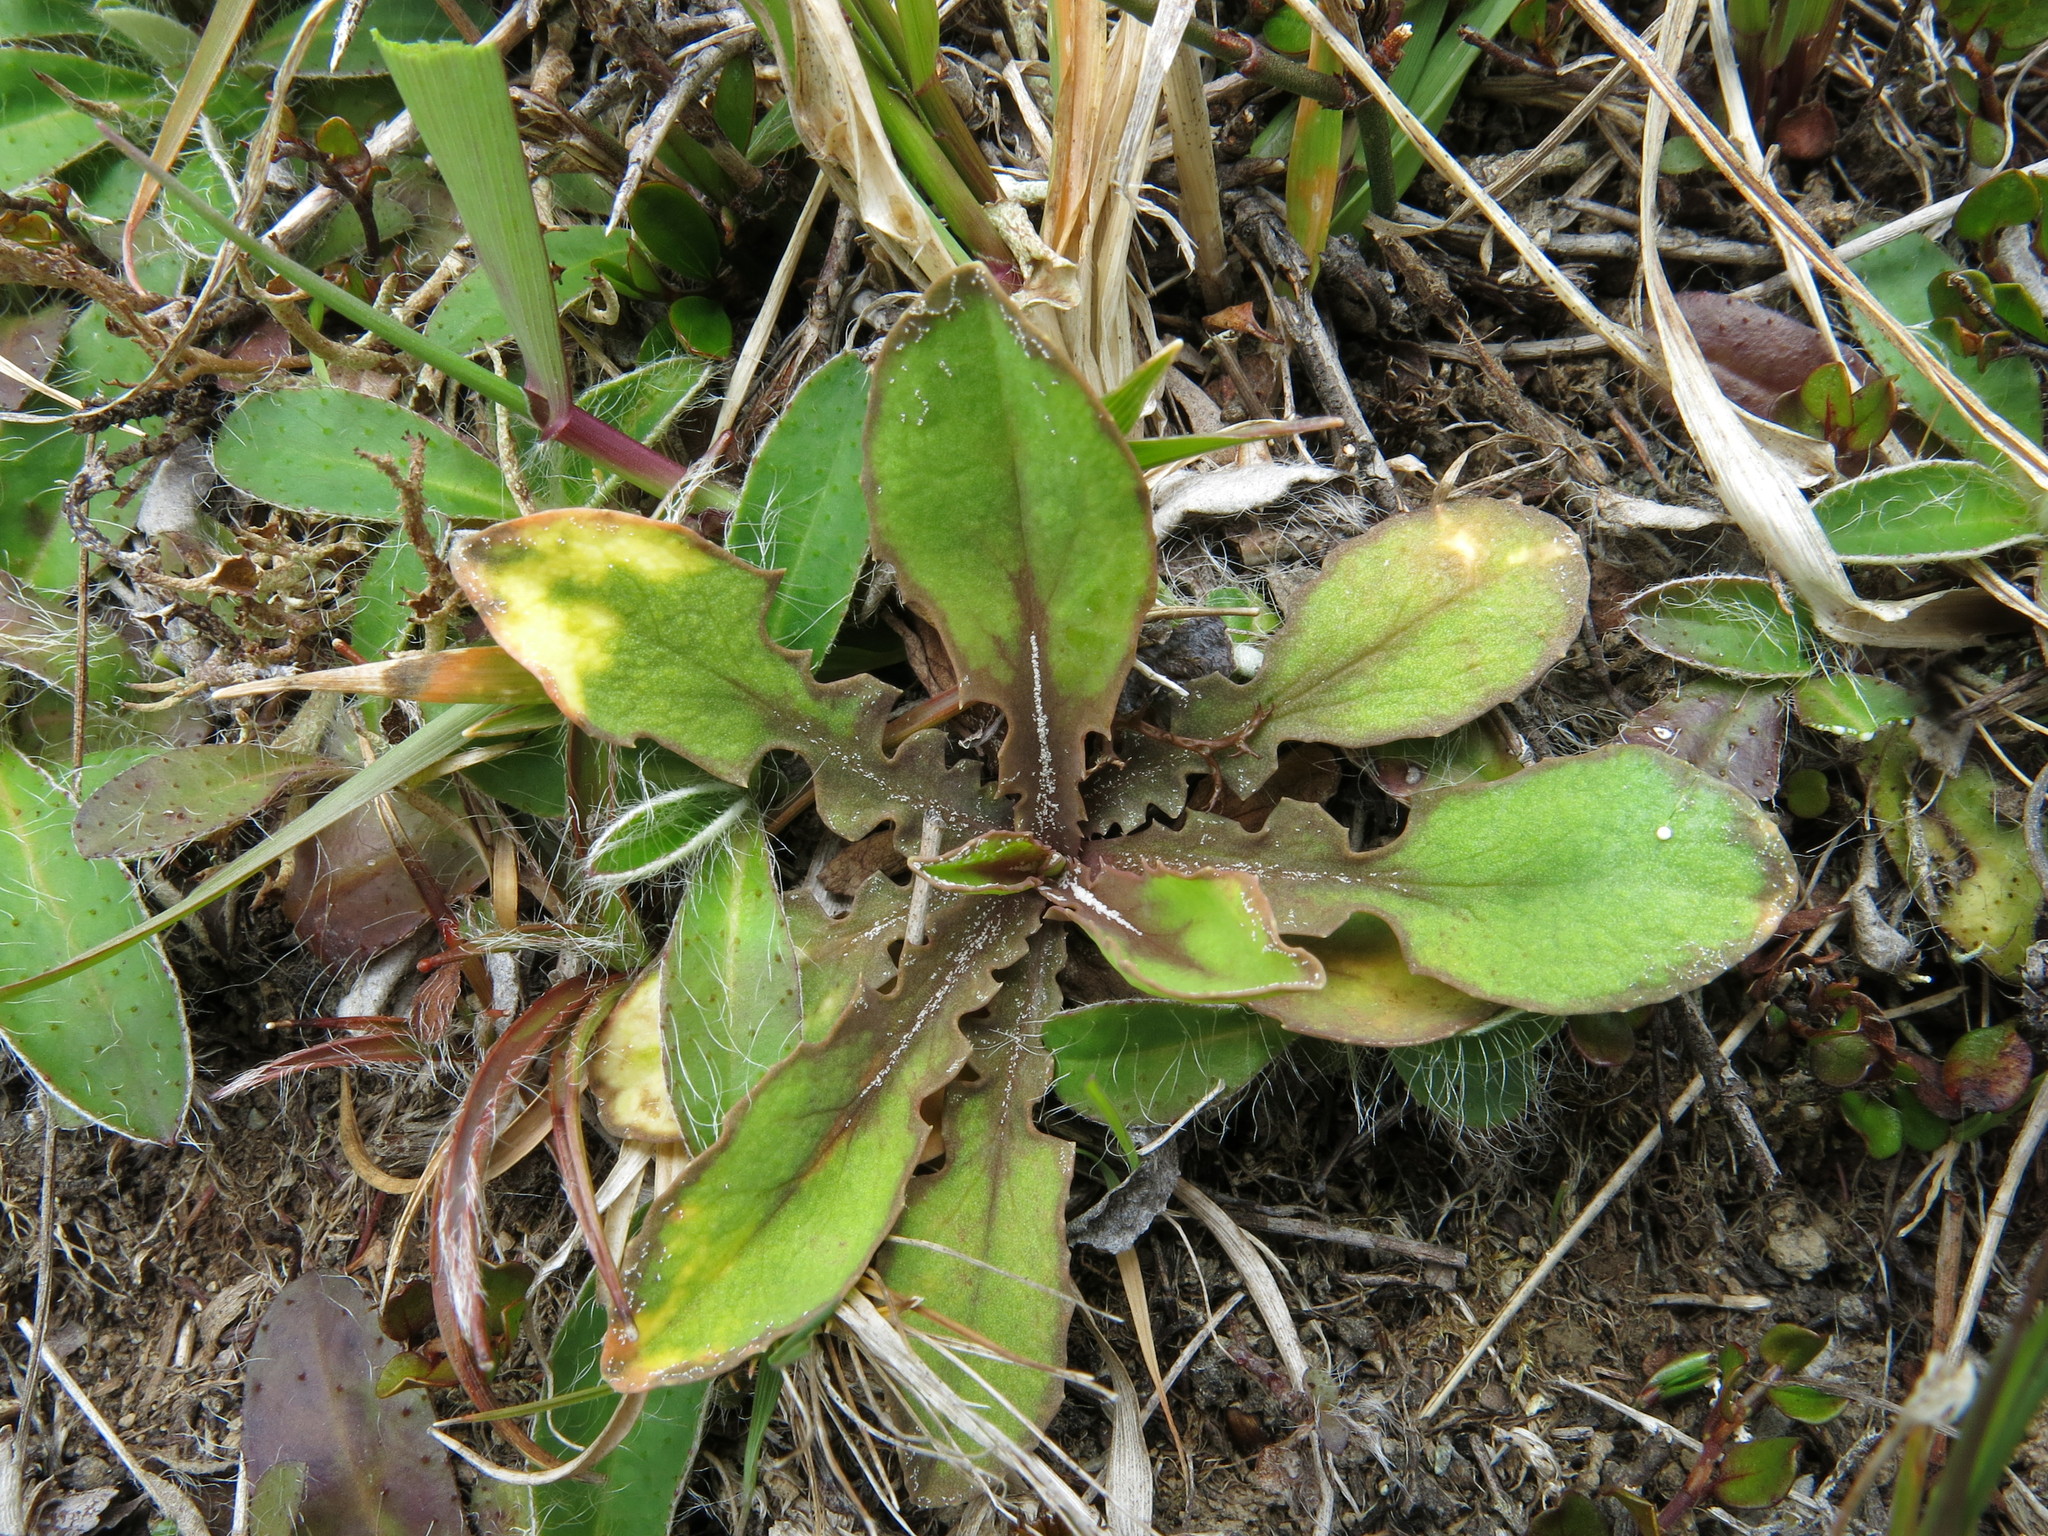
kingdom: Plantae
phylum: Tracheophyta
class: Magnoliopsida
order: Asterales
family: Asteraceae
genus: Sonchus
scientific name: Sonchus novae-zelandiae
